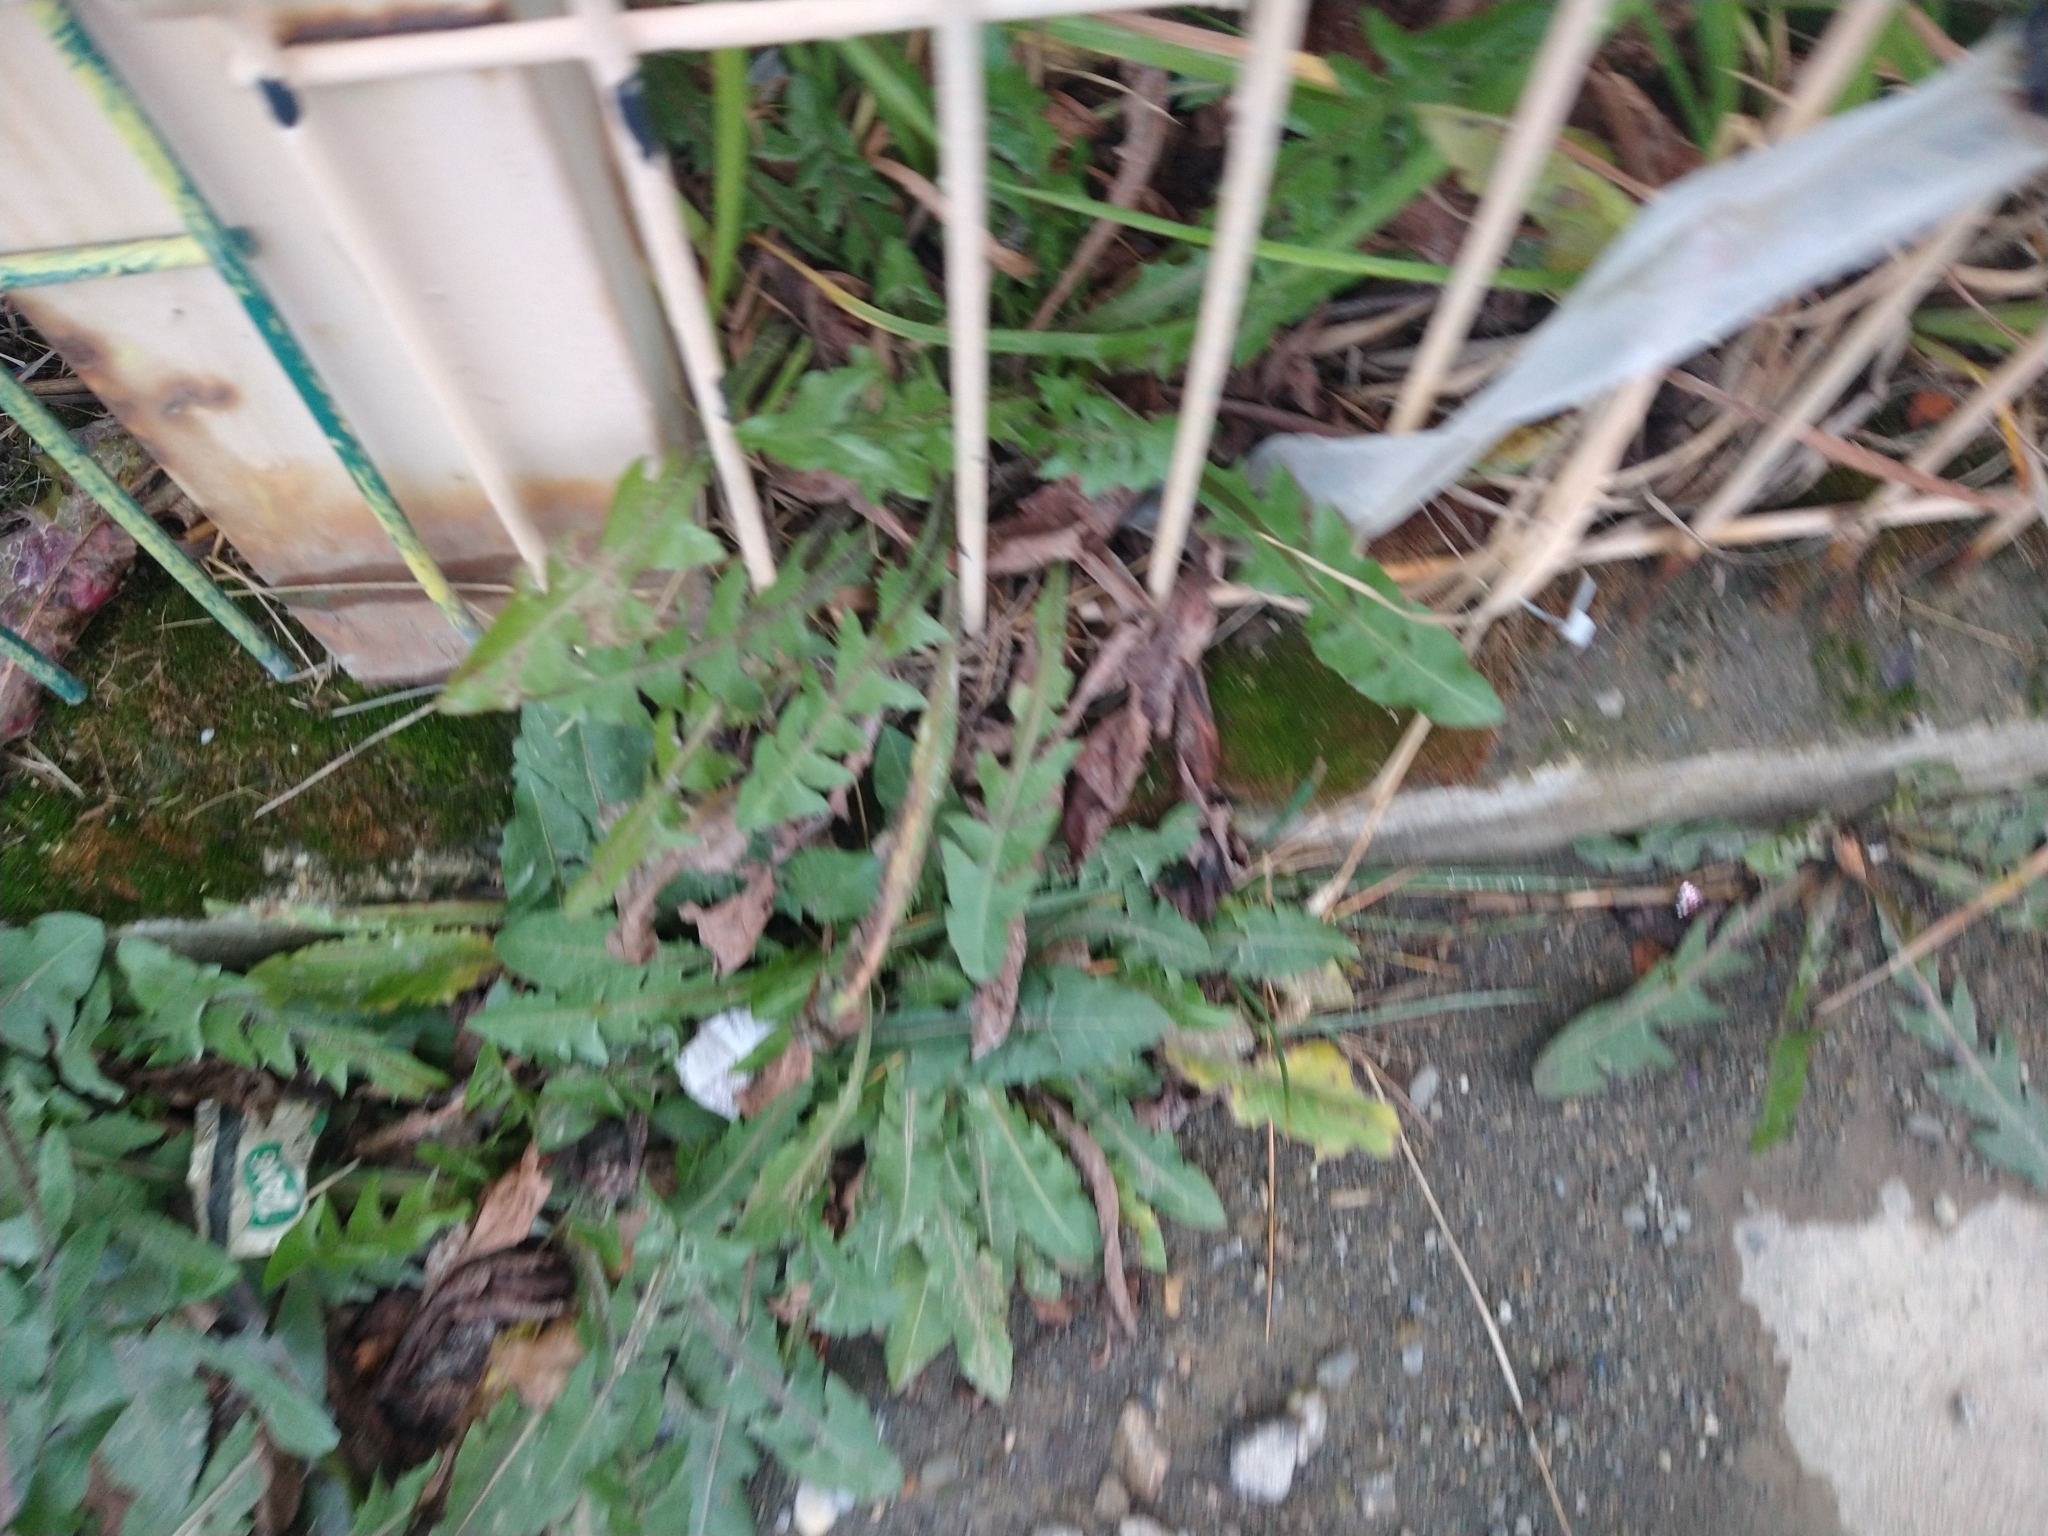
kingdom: Plantae
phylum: Tracheophyta
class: Magnoliopsida
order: Asterales
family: Asteraceae
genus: Taraxacum
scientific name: Taraxacum officinale
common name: Common dandelion
